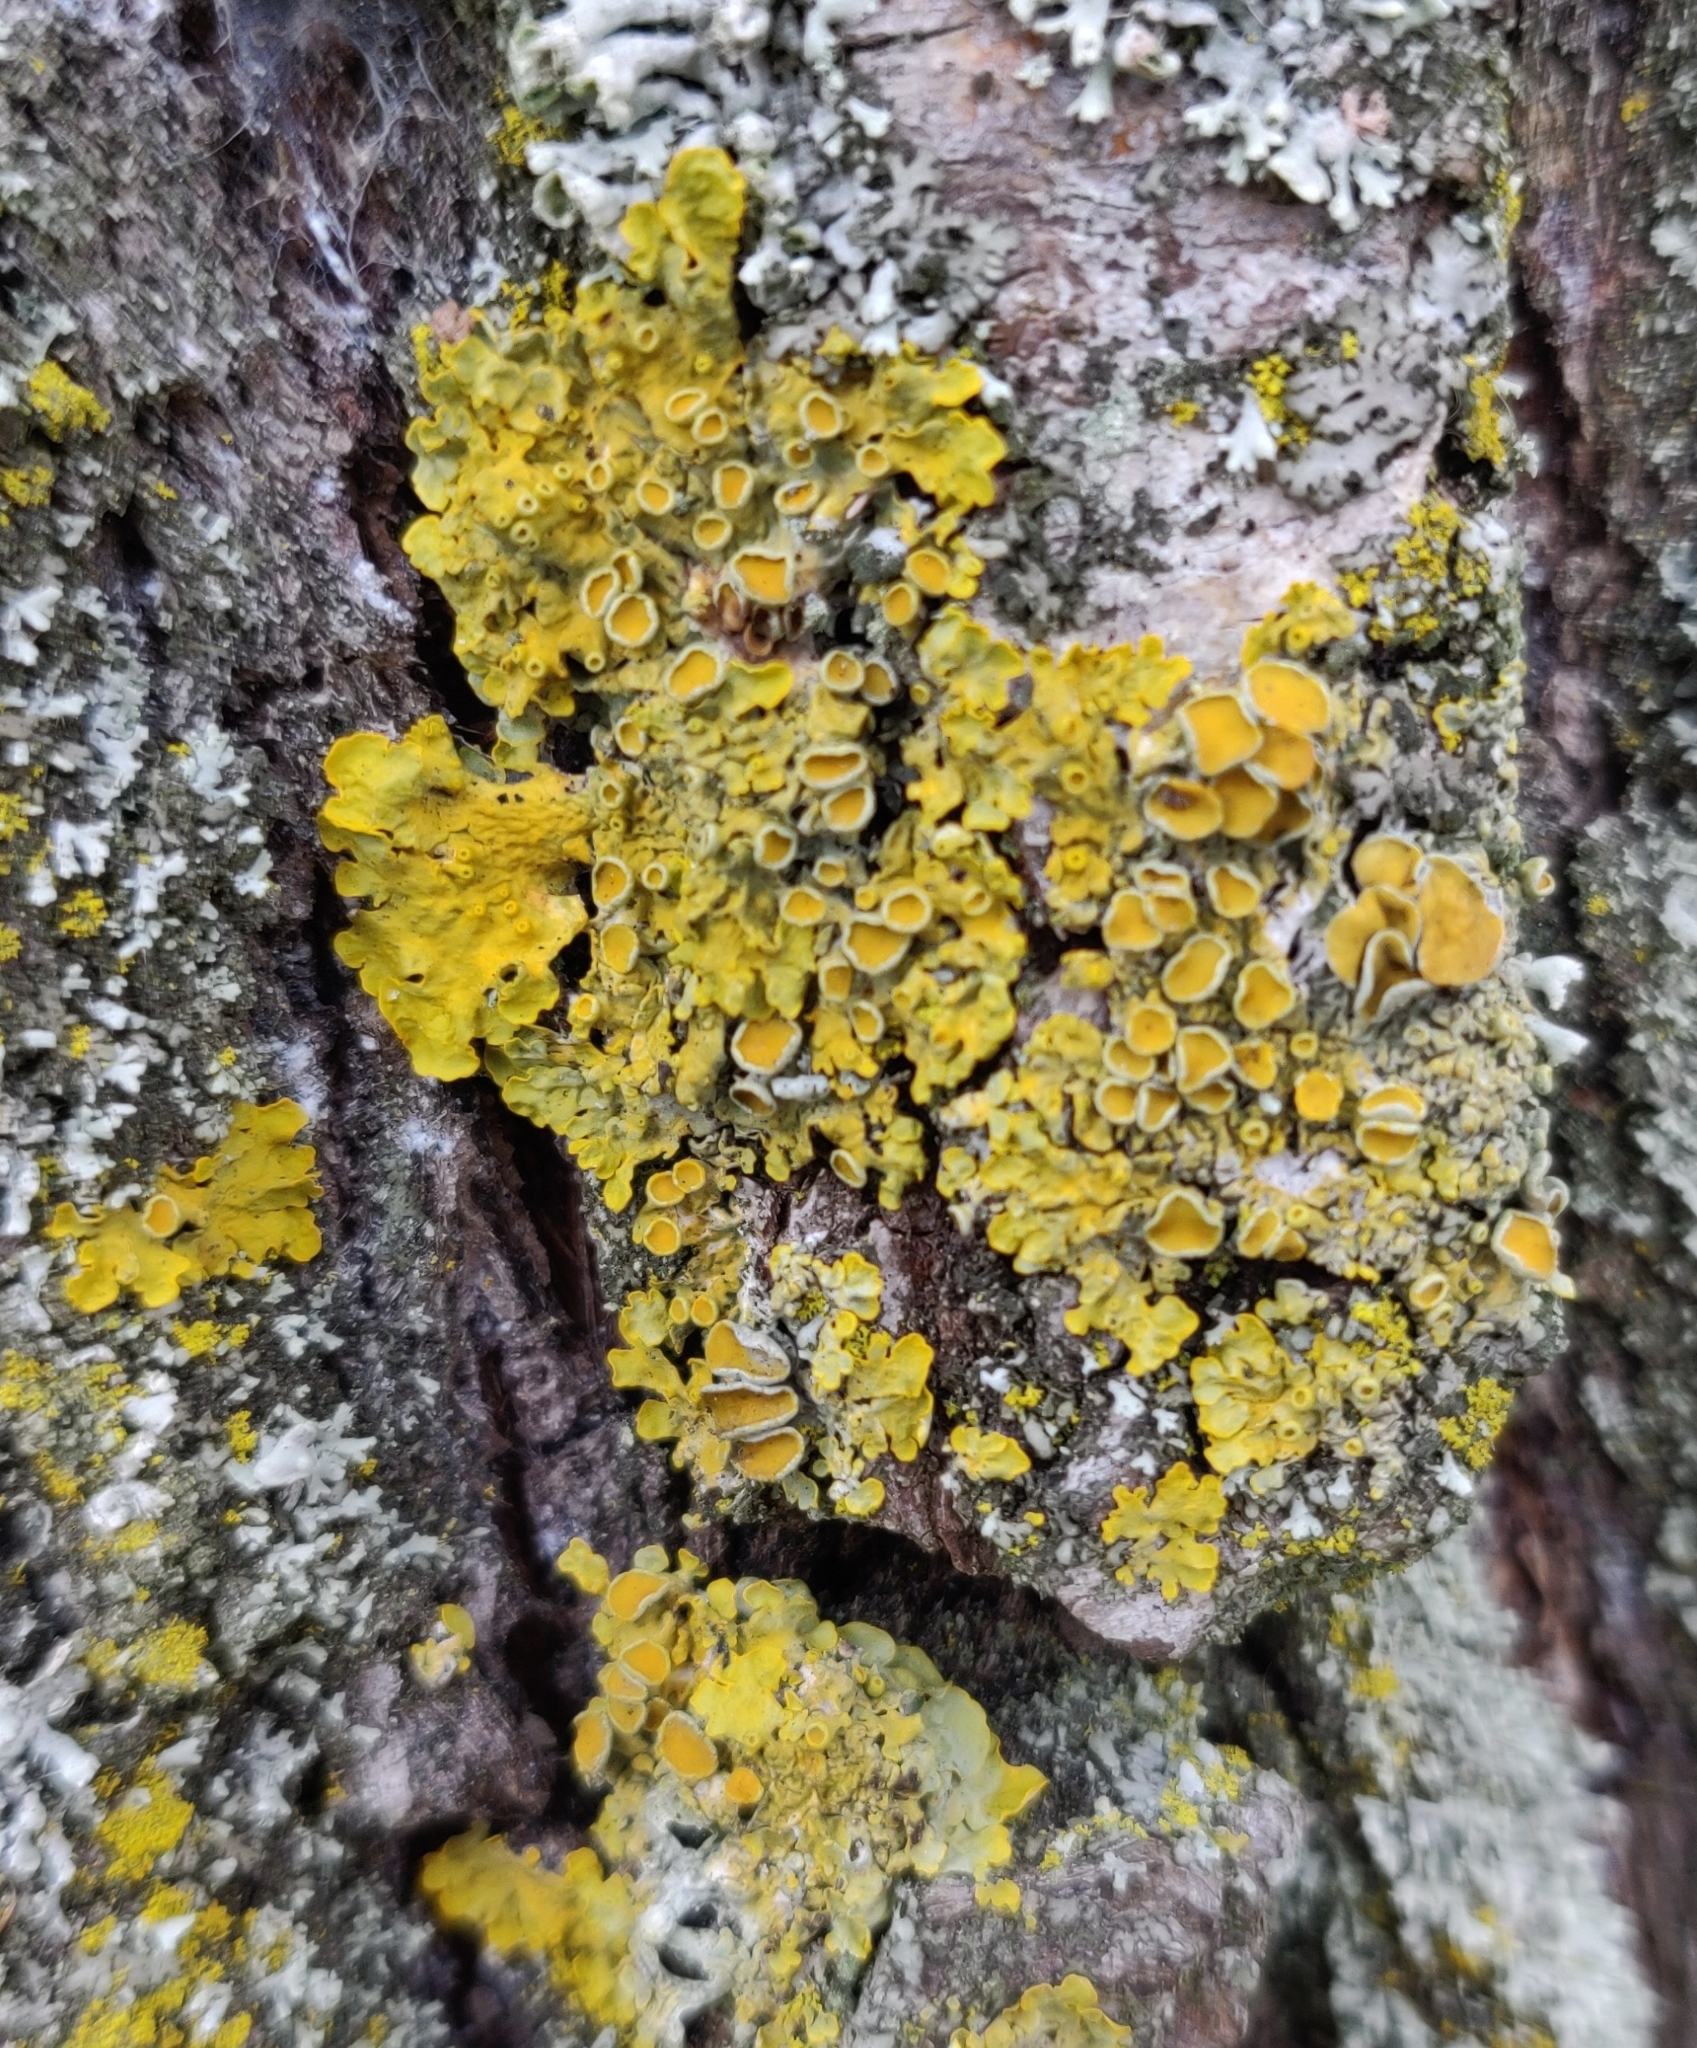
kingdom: Fungi
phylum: Ascomycota
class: Lecanoromycetes
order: Teloschistales
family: Teloschistaceae
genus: Xanthoria
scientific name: Xanthoria parietina
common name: Common orange lichen
